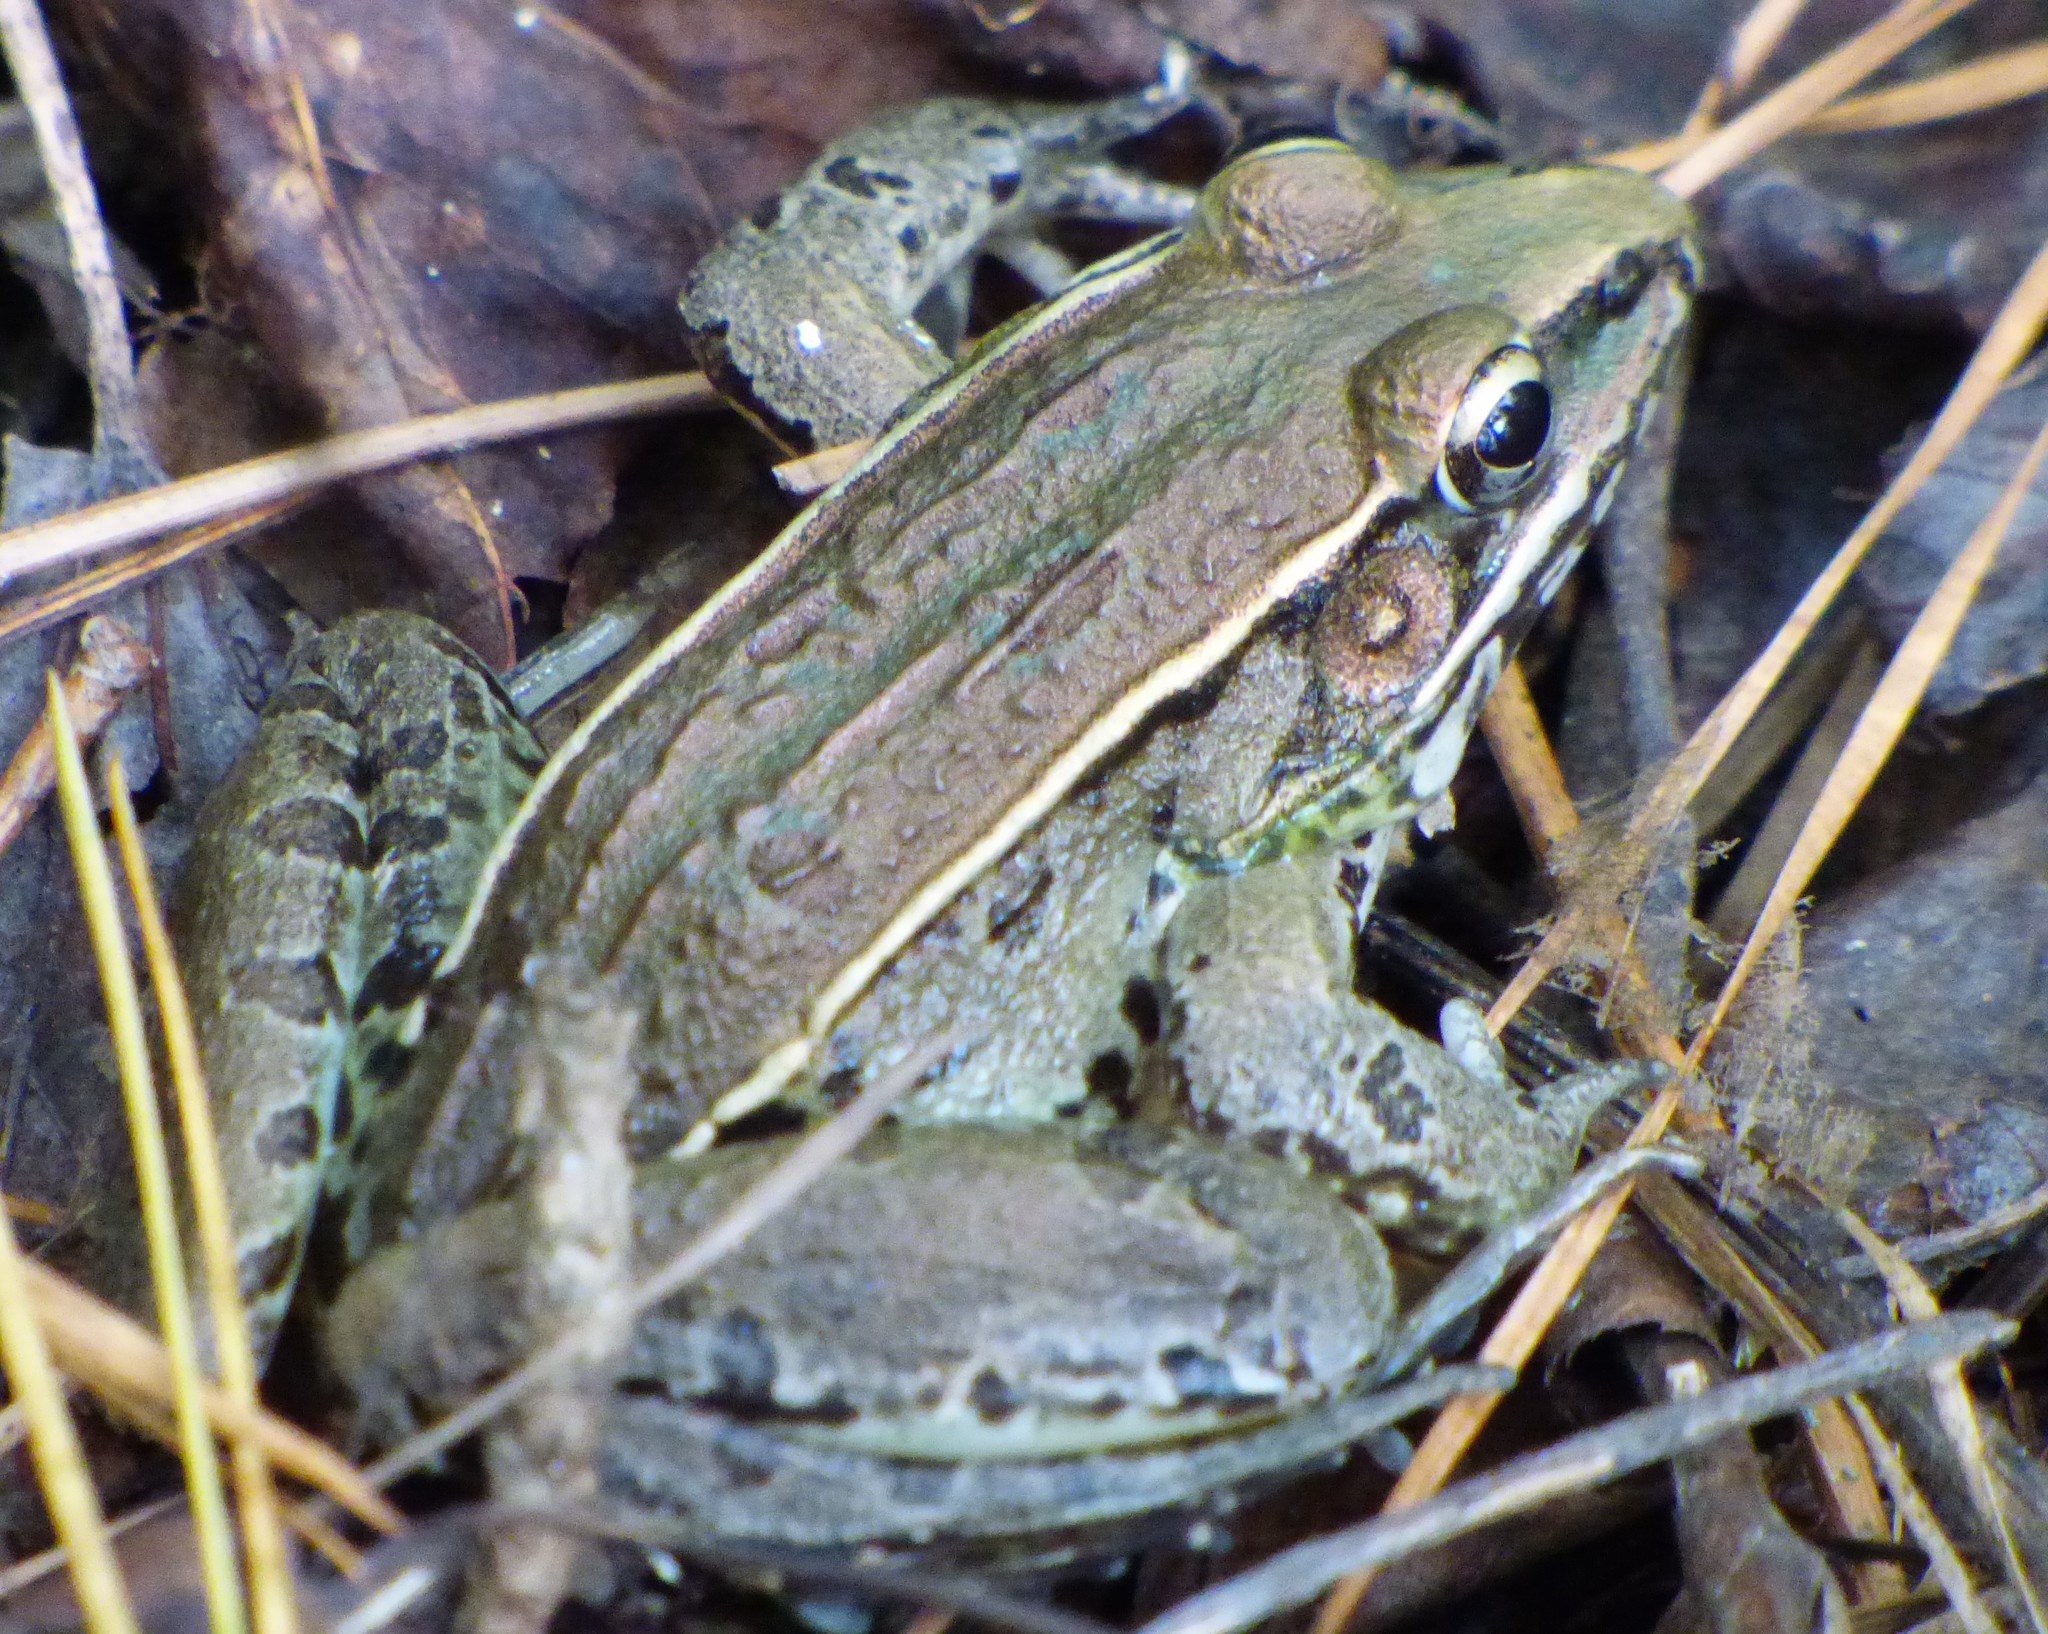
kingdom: Animalia
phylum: Chordata
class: Amphibia
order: Anura
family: Ranidae
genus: Lithobates
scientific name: Lithobates sphenocephalus
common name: Southern leopard frog
